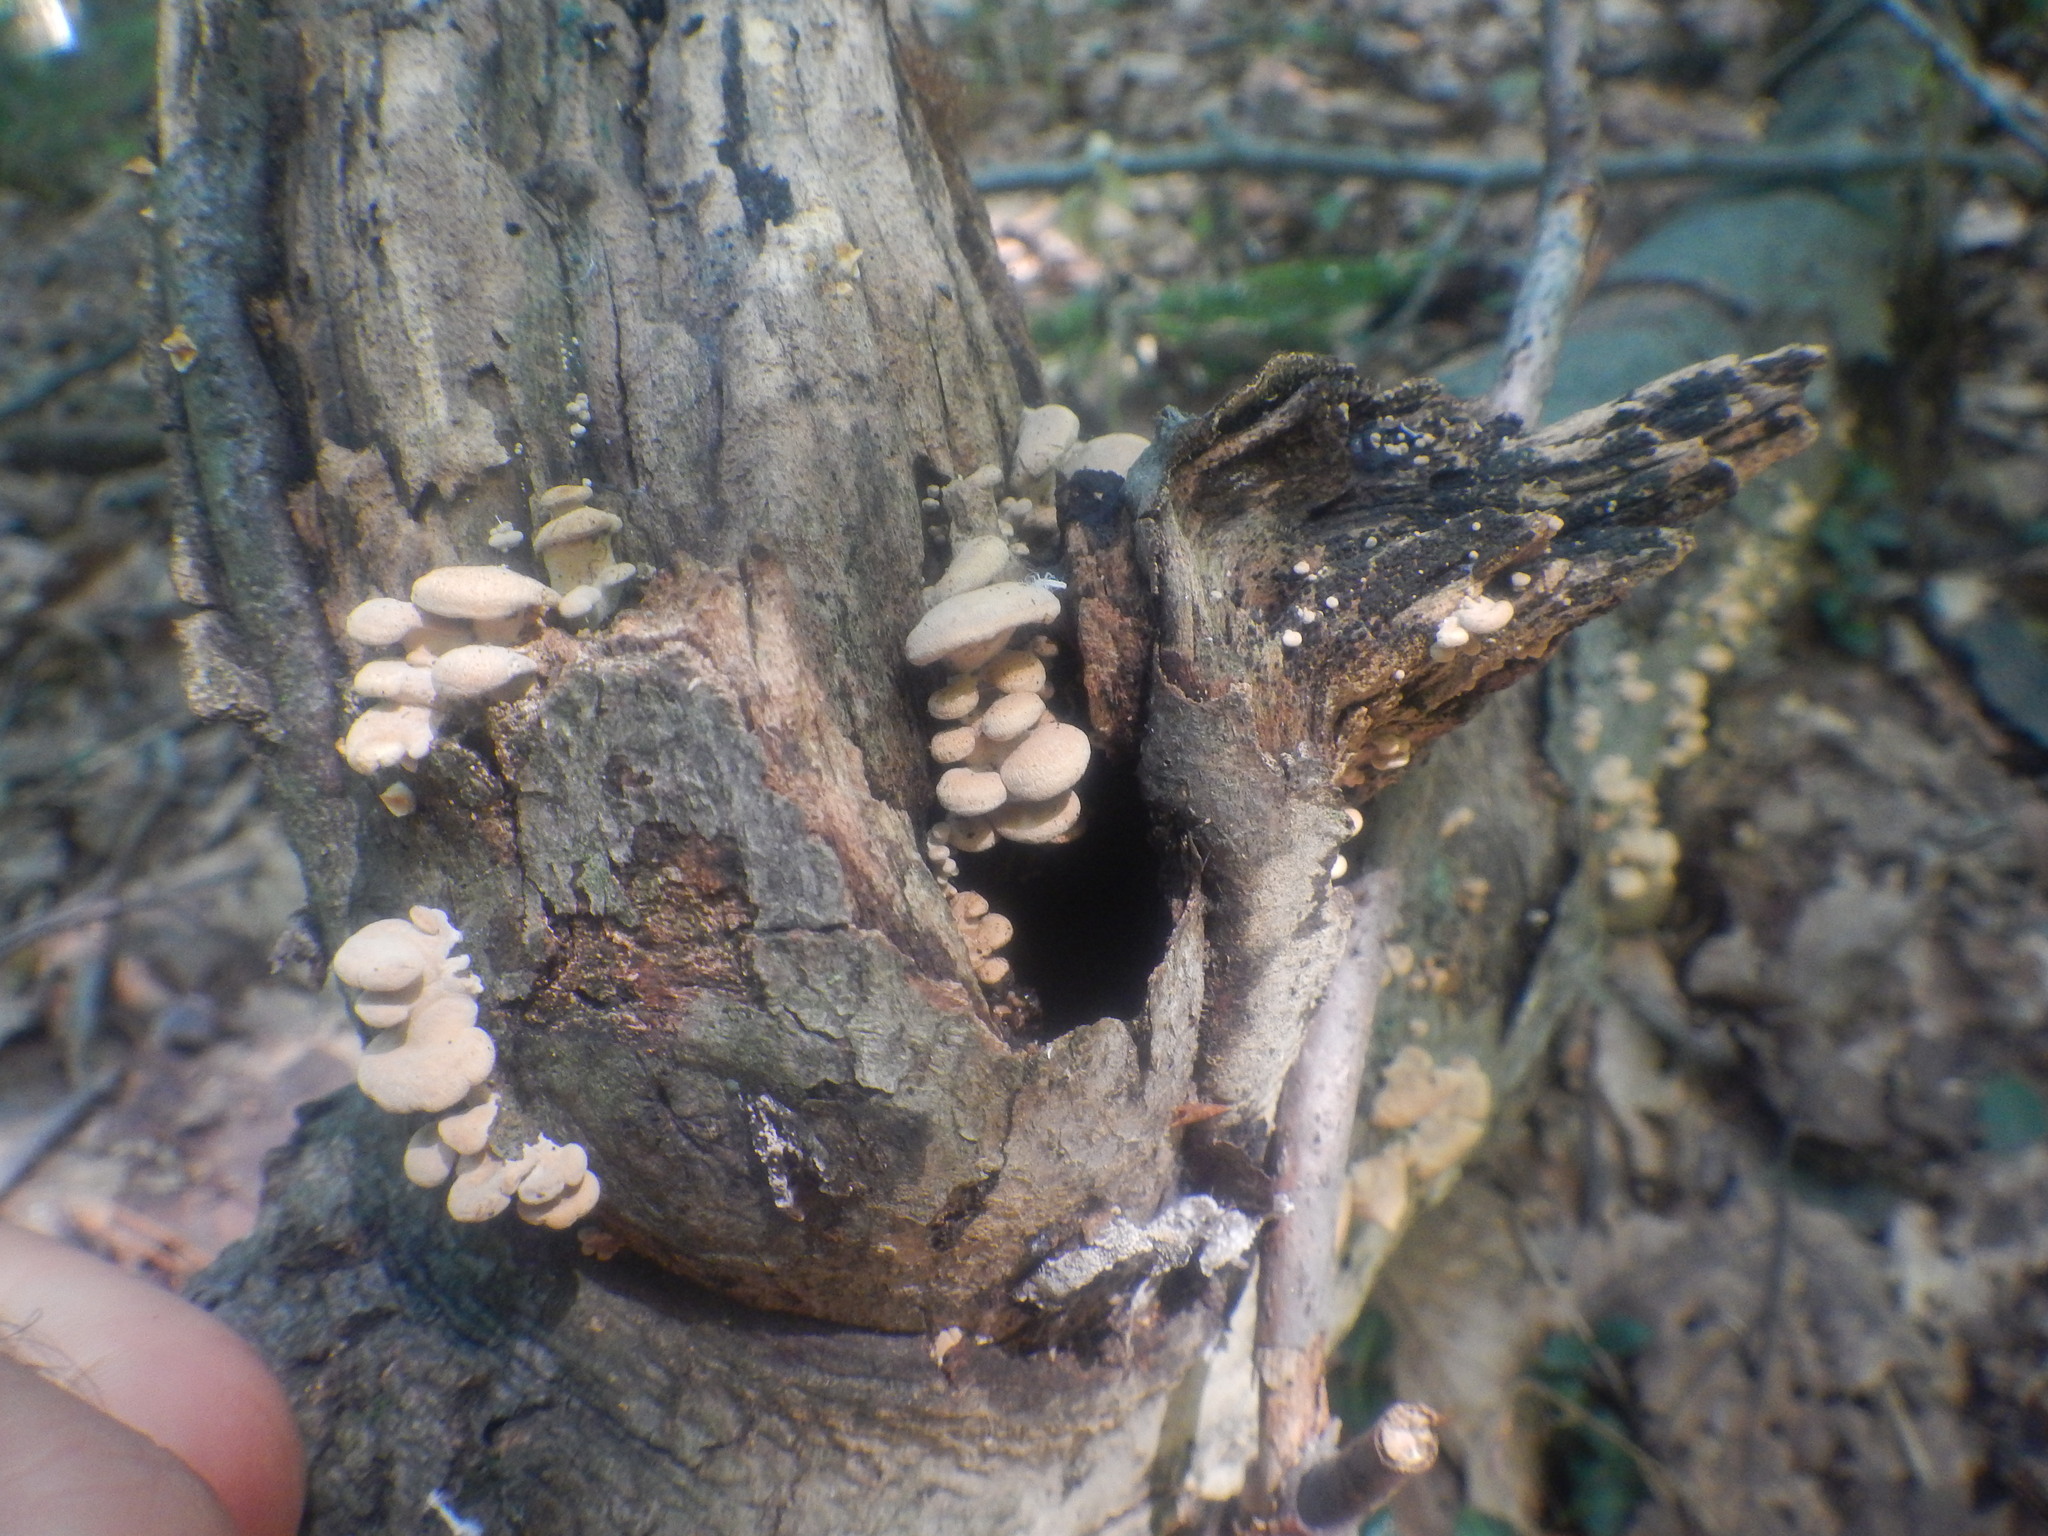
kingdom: Fungi
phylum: Basidiomycota
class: Agaricomycetes
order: Agaricales
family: Mycenaceae
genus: Panellus
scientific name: Panellus stipticus
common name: Bitter oysterling
